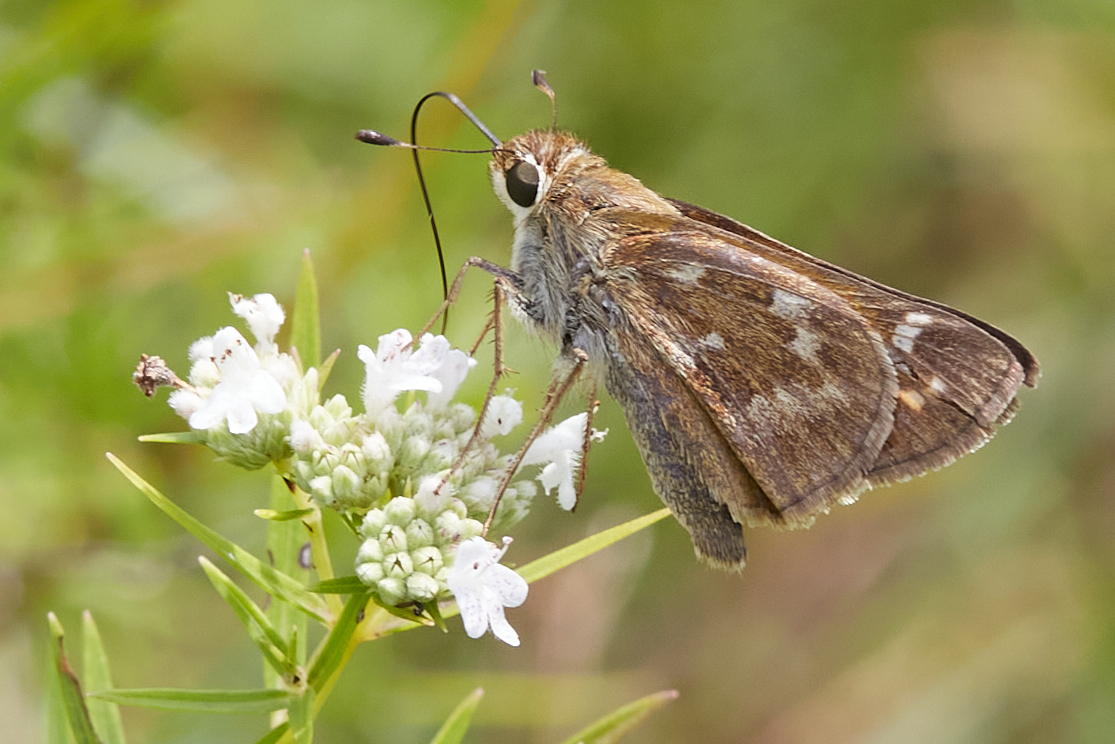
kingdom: Animalia
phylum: Arthropoda
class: Insecta
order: Lepidoptera
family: Hesperiidae
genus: Atalopedes
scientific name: Atalopedes
